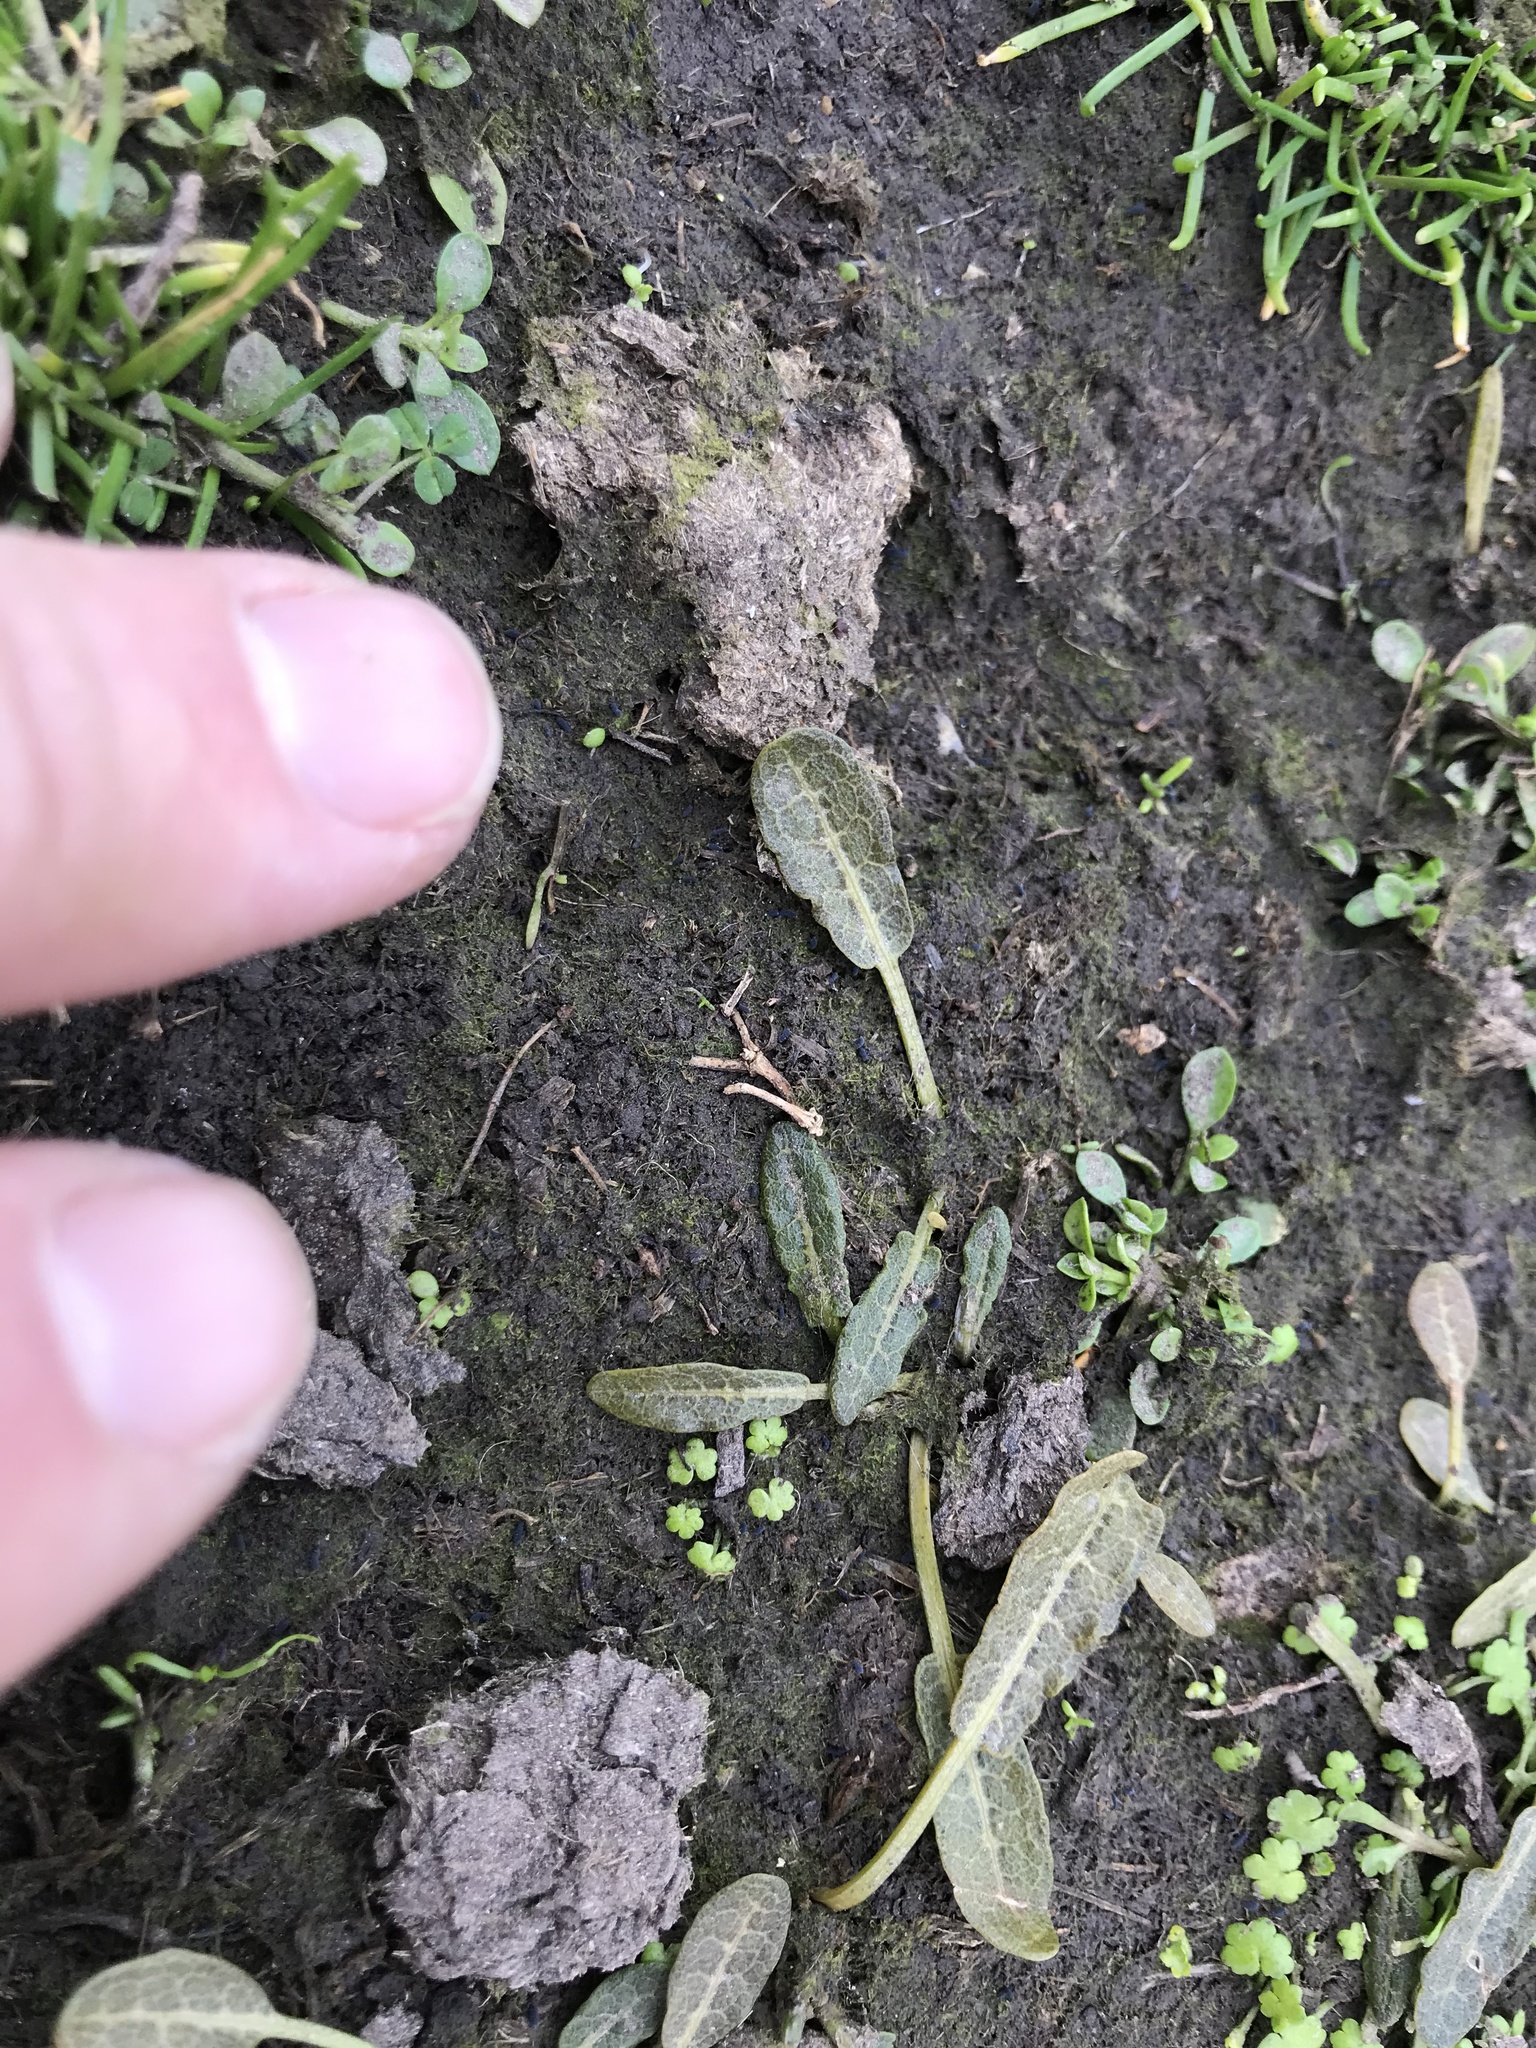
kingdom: Plantae
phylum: Tracheophyta
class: Magnoliopsida
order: Caryophyllales
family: Polygonaceae
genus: Rumex
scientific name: Rumex neglectus
